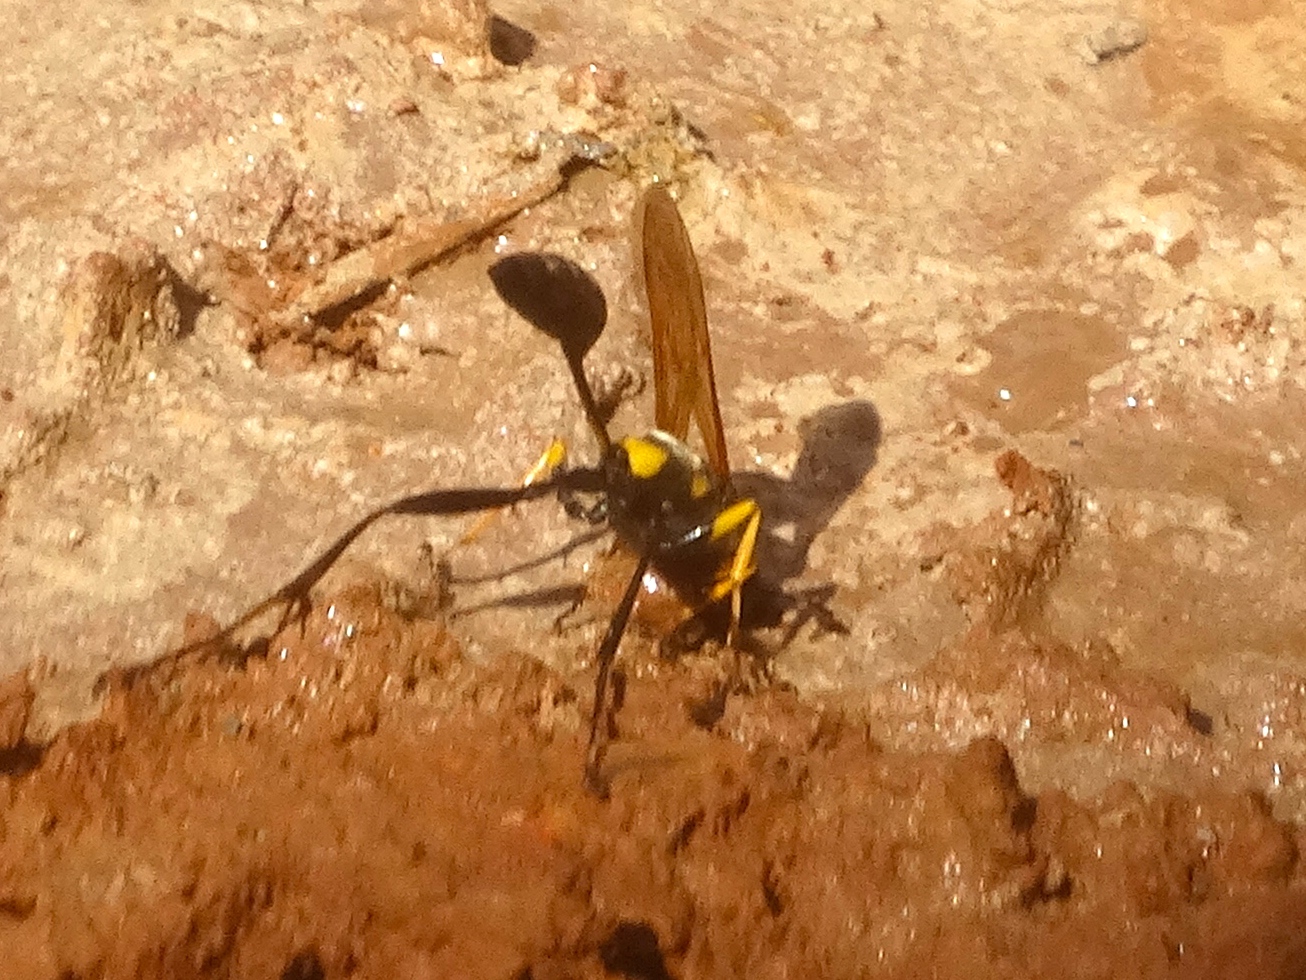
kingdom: Animalia
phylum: Arthropoda
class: Insecta
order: Hymenoptera
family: Sphecidae
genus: Sceliphron
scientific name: Sceliphron assimile
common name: Clayman's mud dauber
